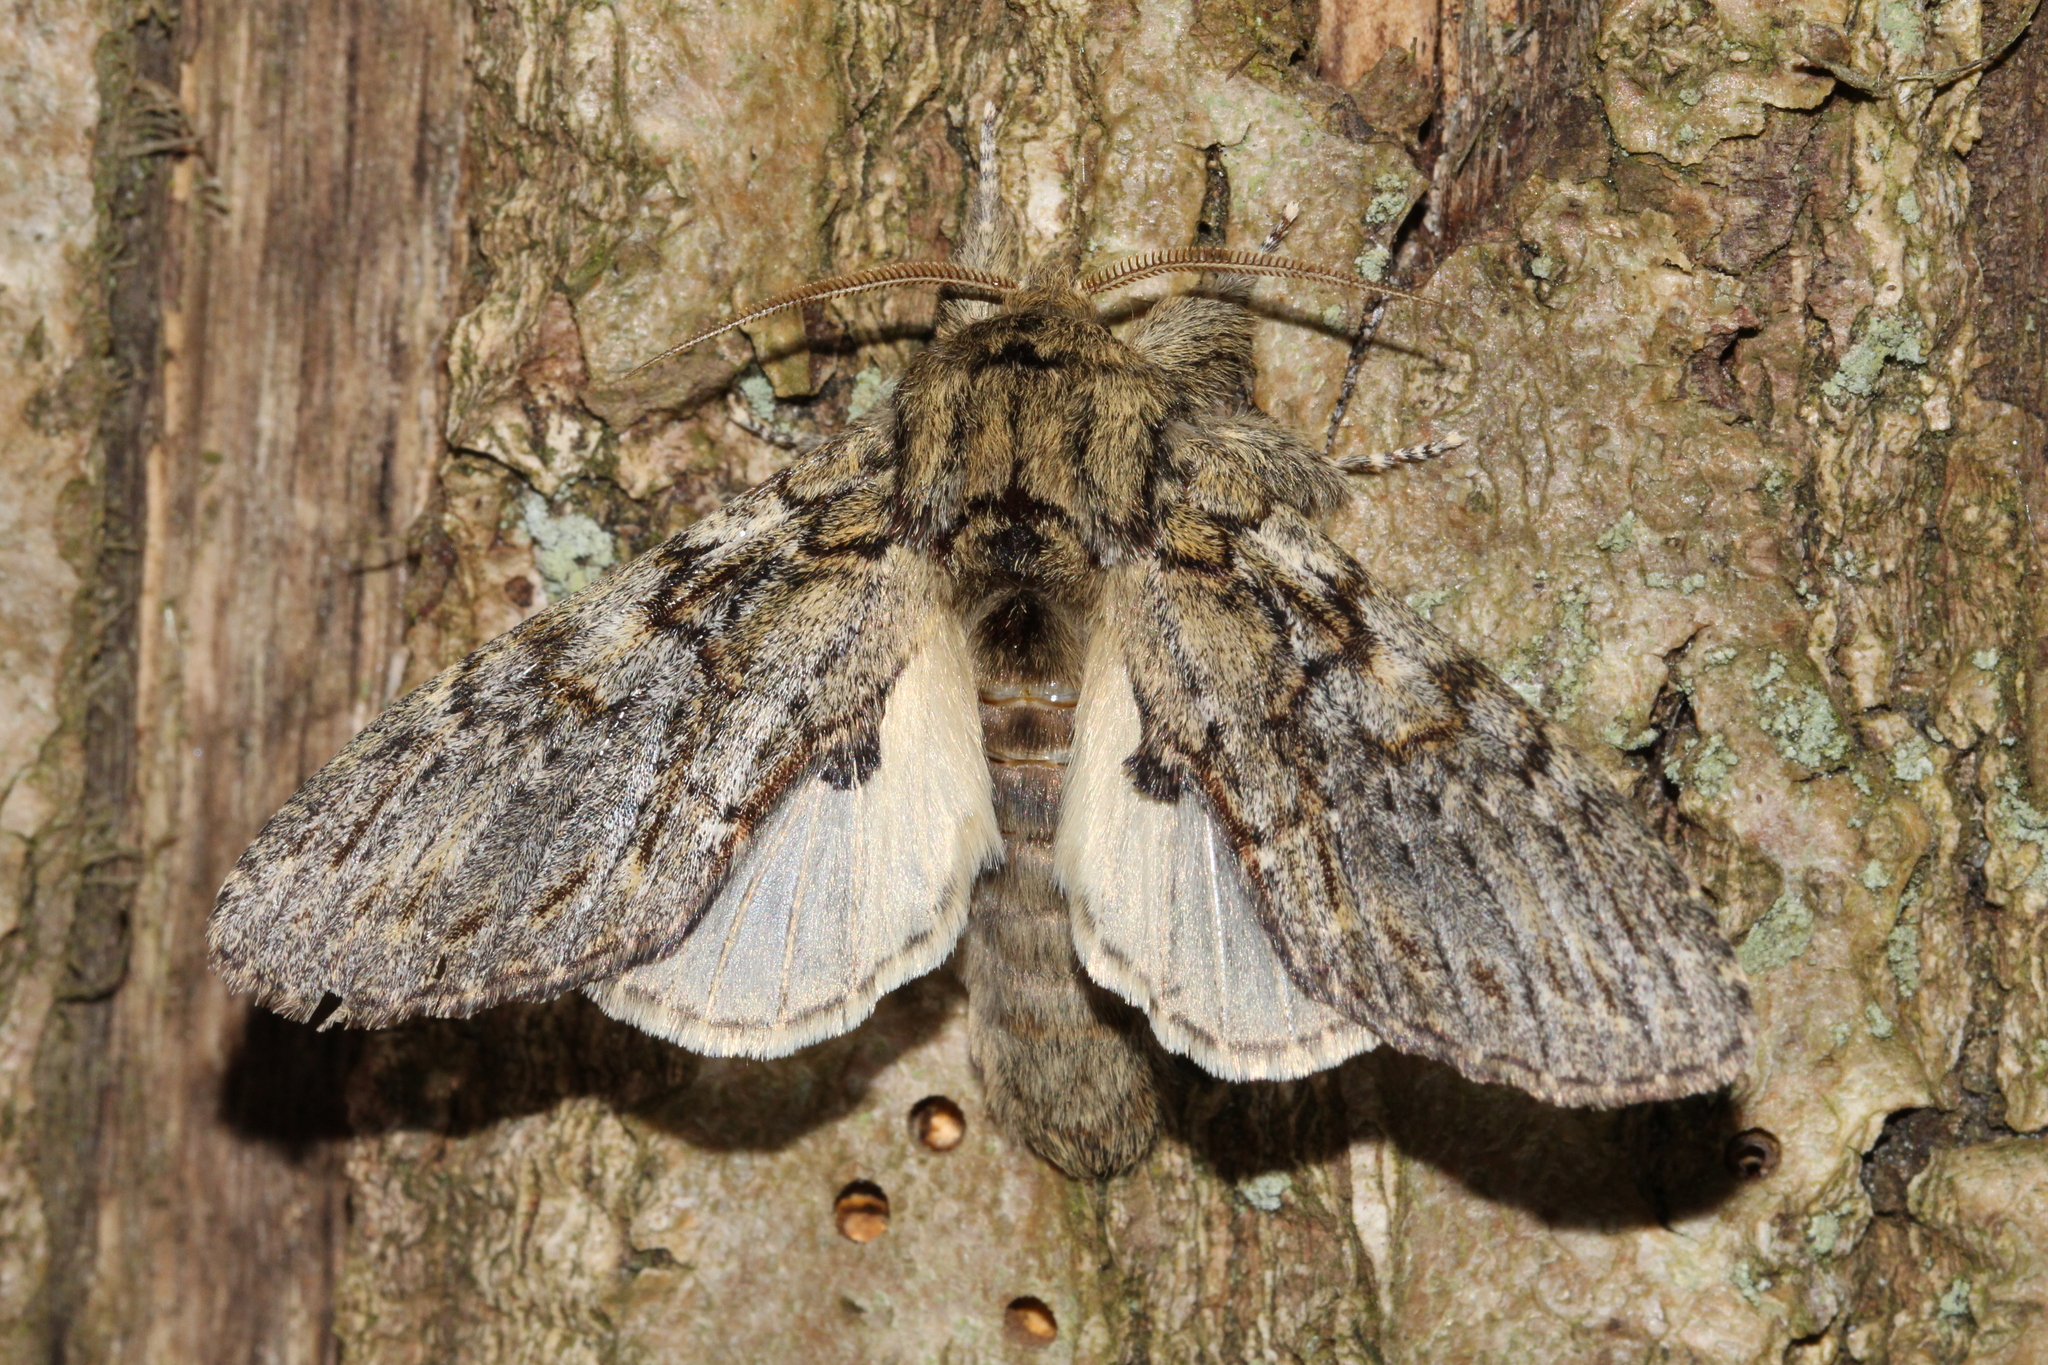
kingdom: Animalia
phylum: Arthropoda
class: Insecta
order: Lepidoptera
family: Notodontidae
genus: Peridea
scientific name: Peridea anceps
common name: Great prominent
